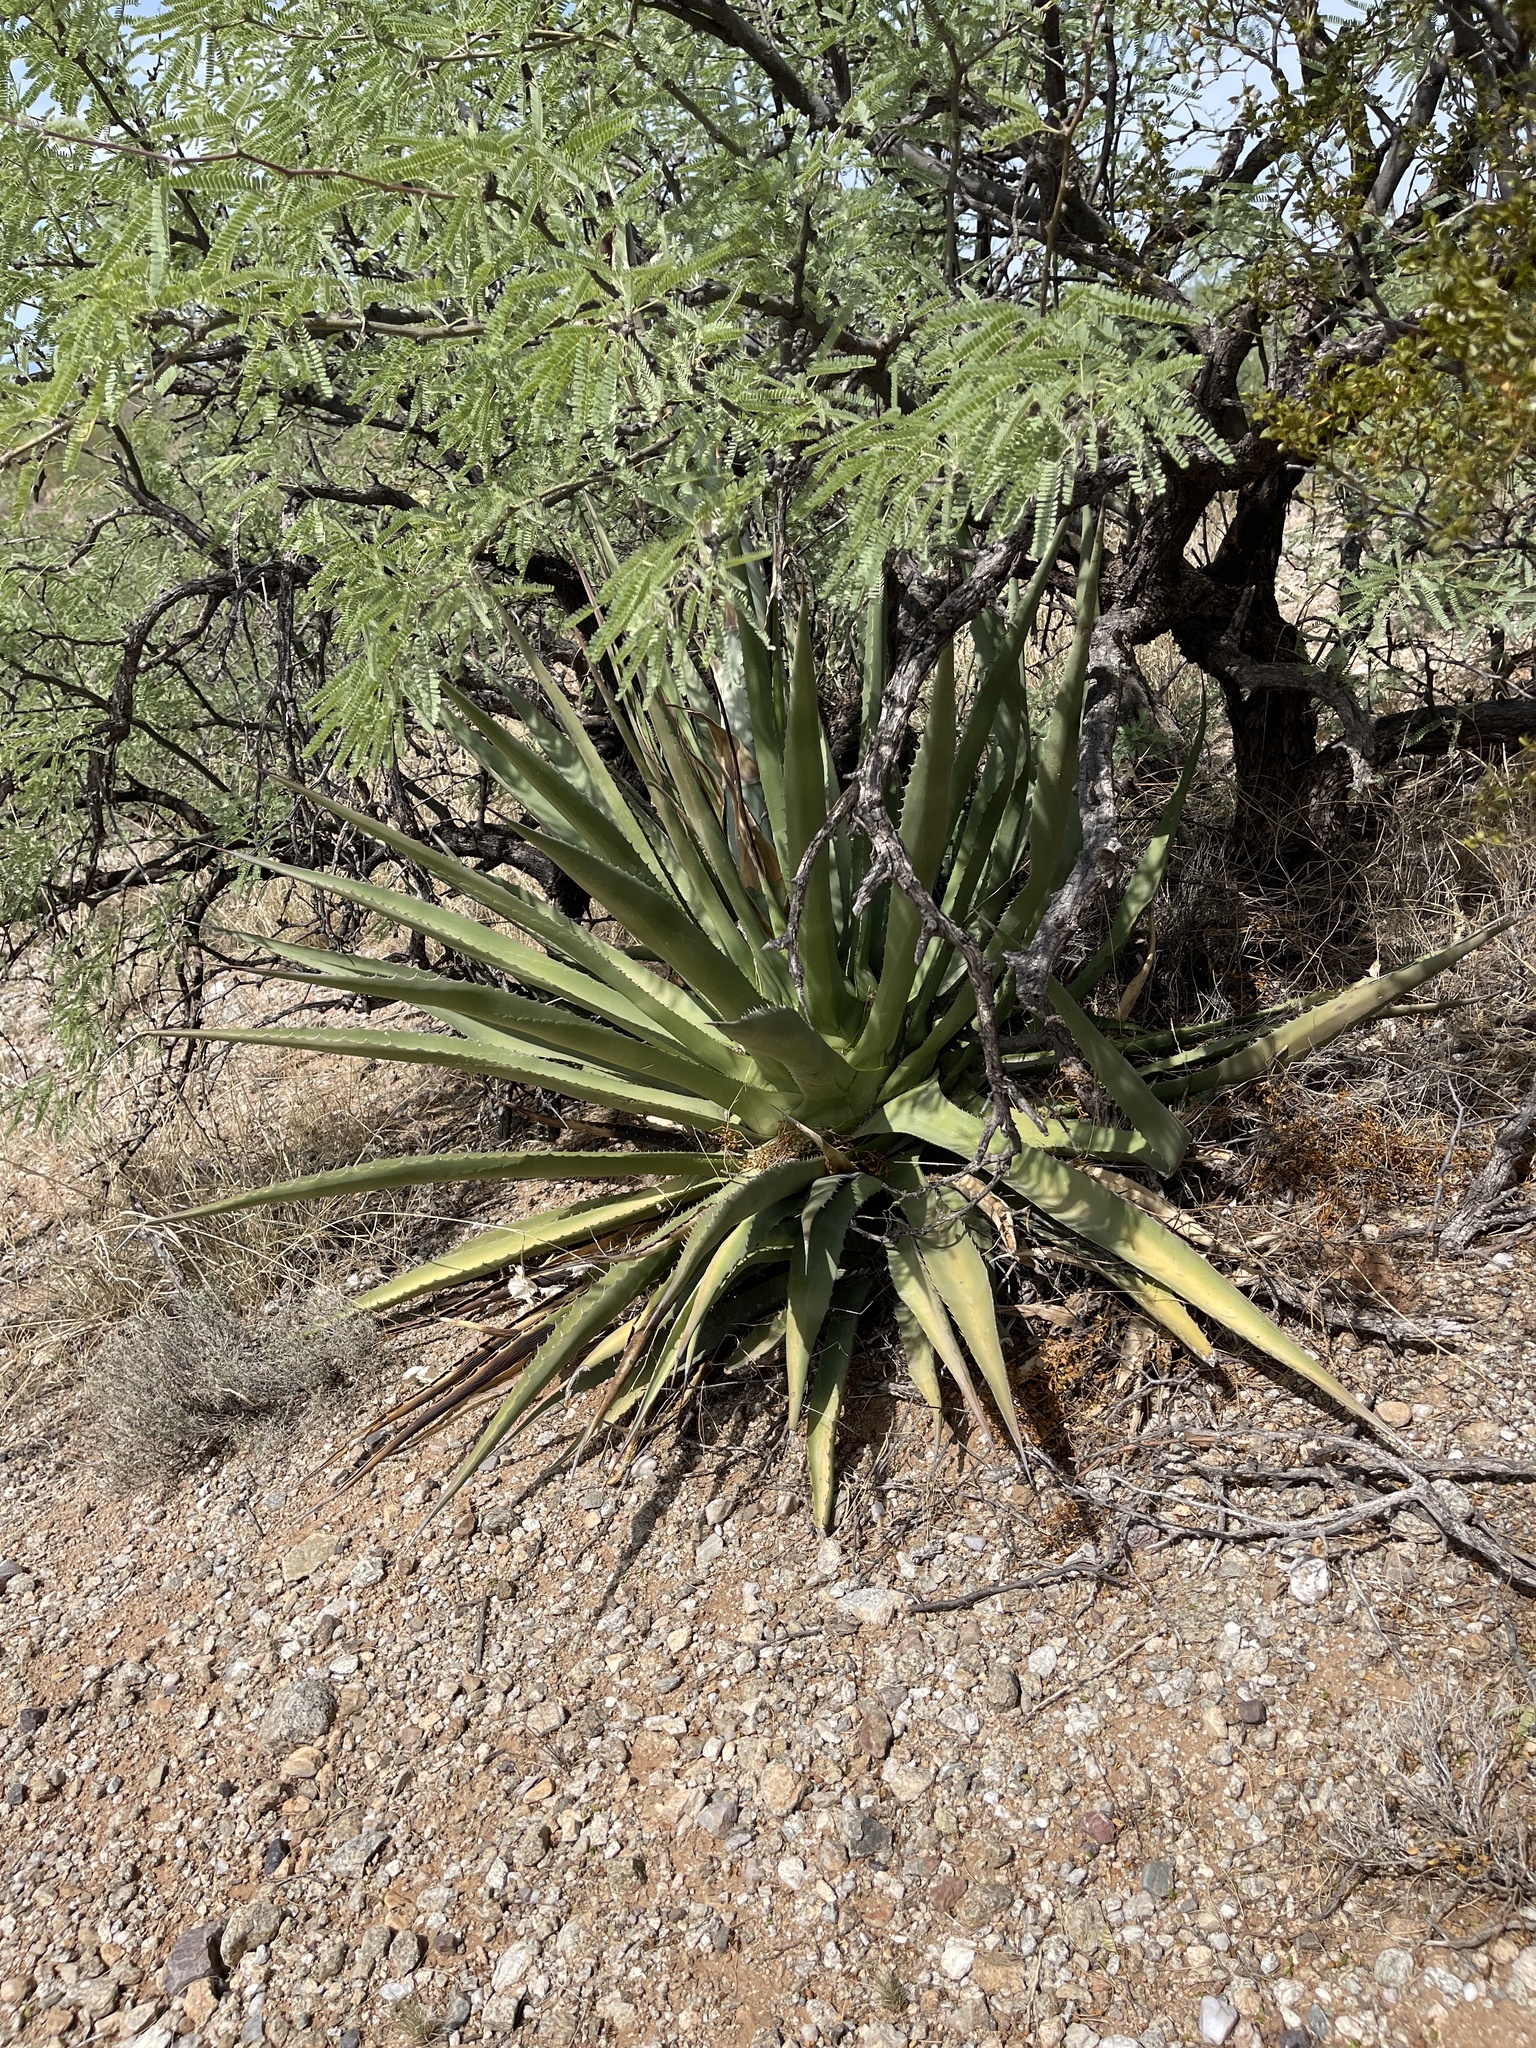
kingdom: Plantae
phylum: Tracheophyta
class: Liliopsida
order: Asparagales
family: Asparagaceae
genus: Agave
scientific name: Agave palmeri
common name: Palmer agave
